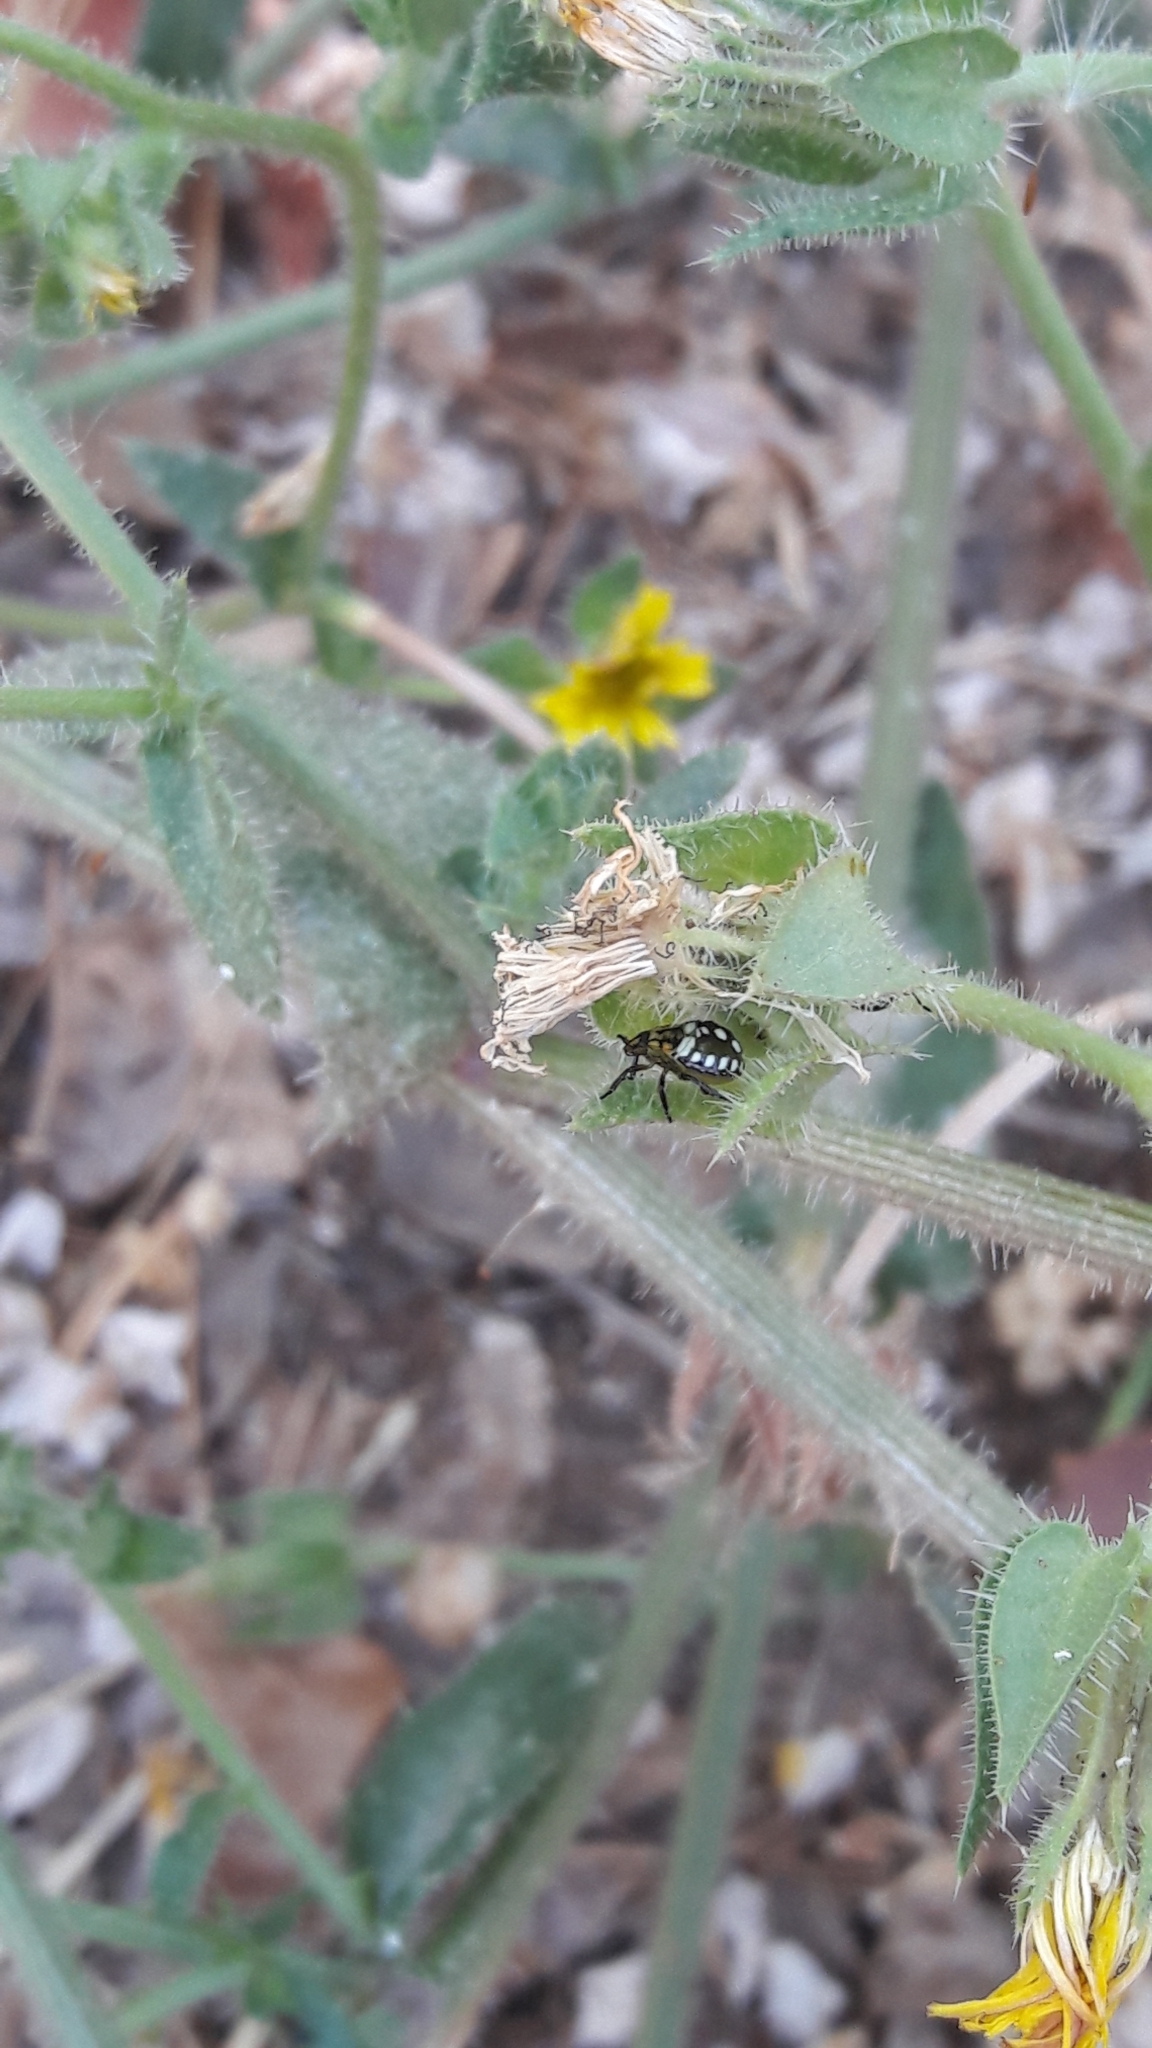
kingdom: Animalia
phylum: Arthropoda
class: Insecta
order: Hemiptera
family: Pentatomidae
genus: Nezara
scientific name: Nezara viridula
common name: Southern green stink bug
